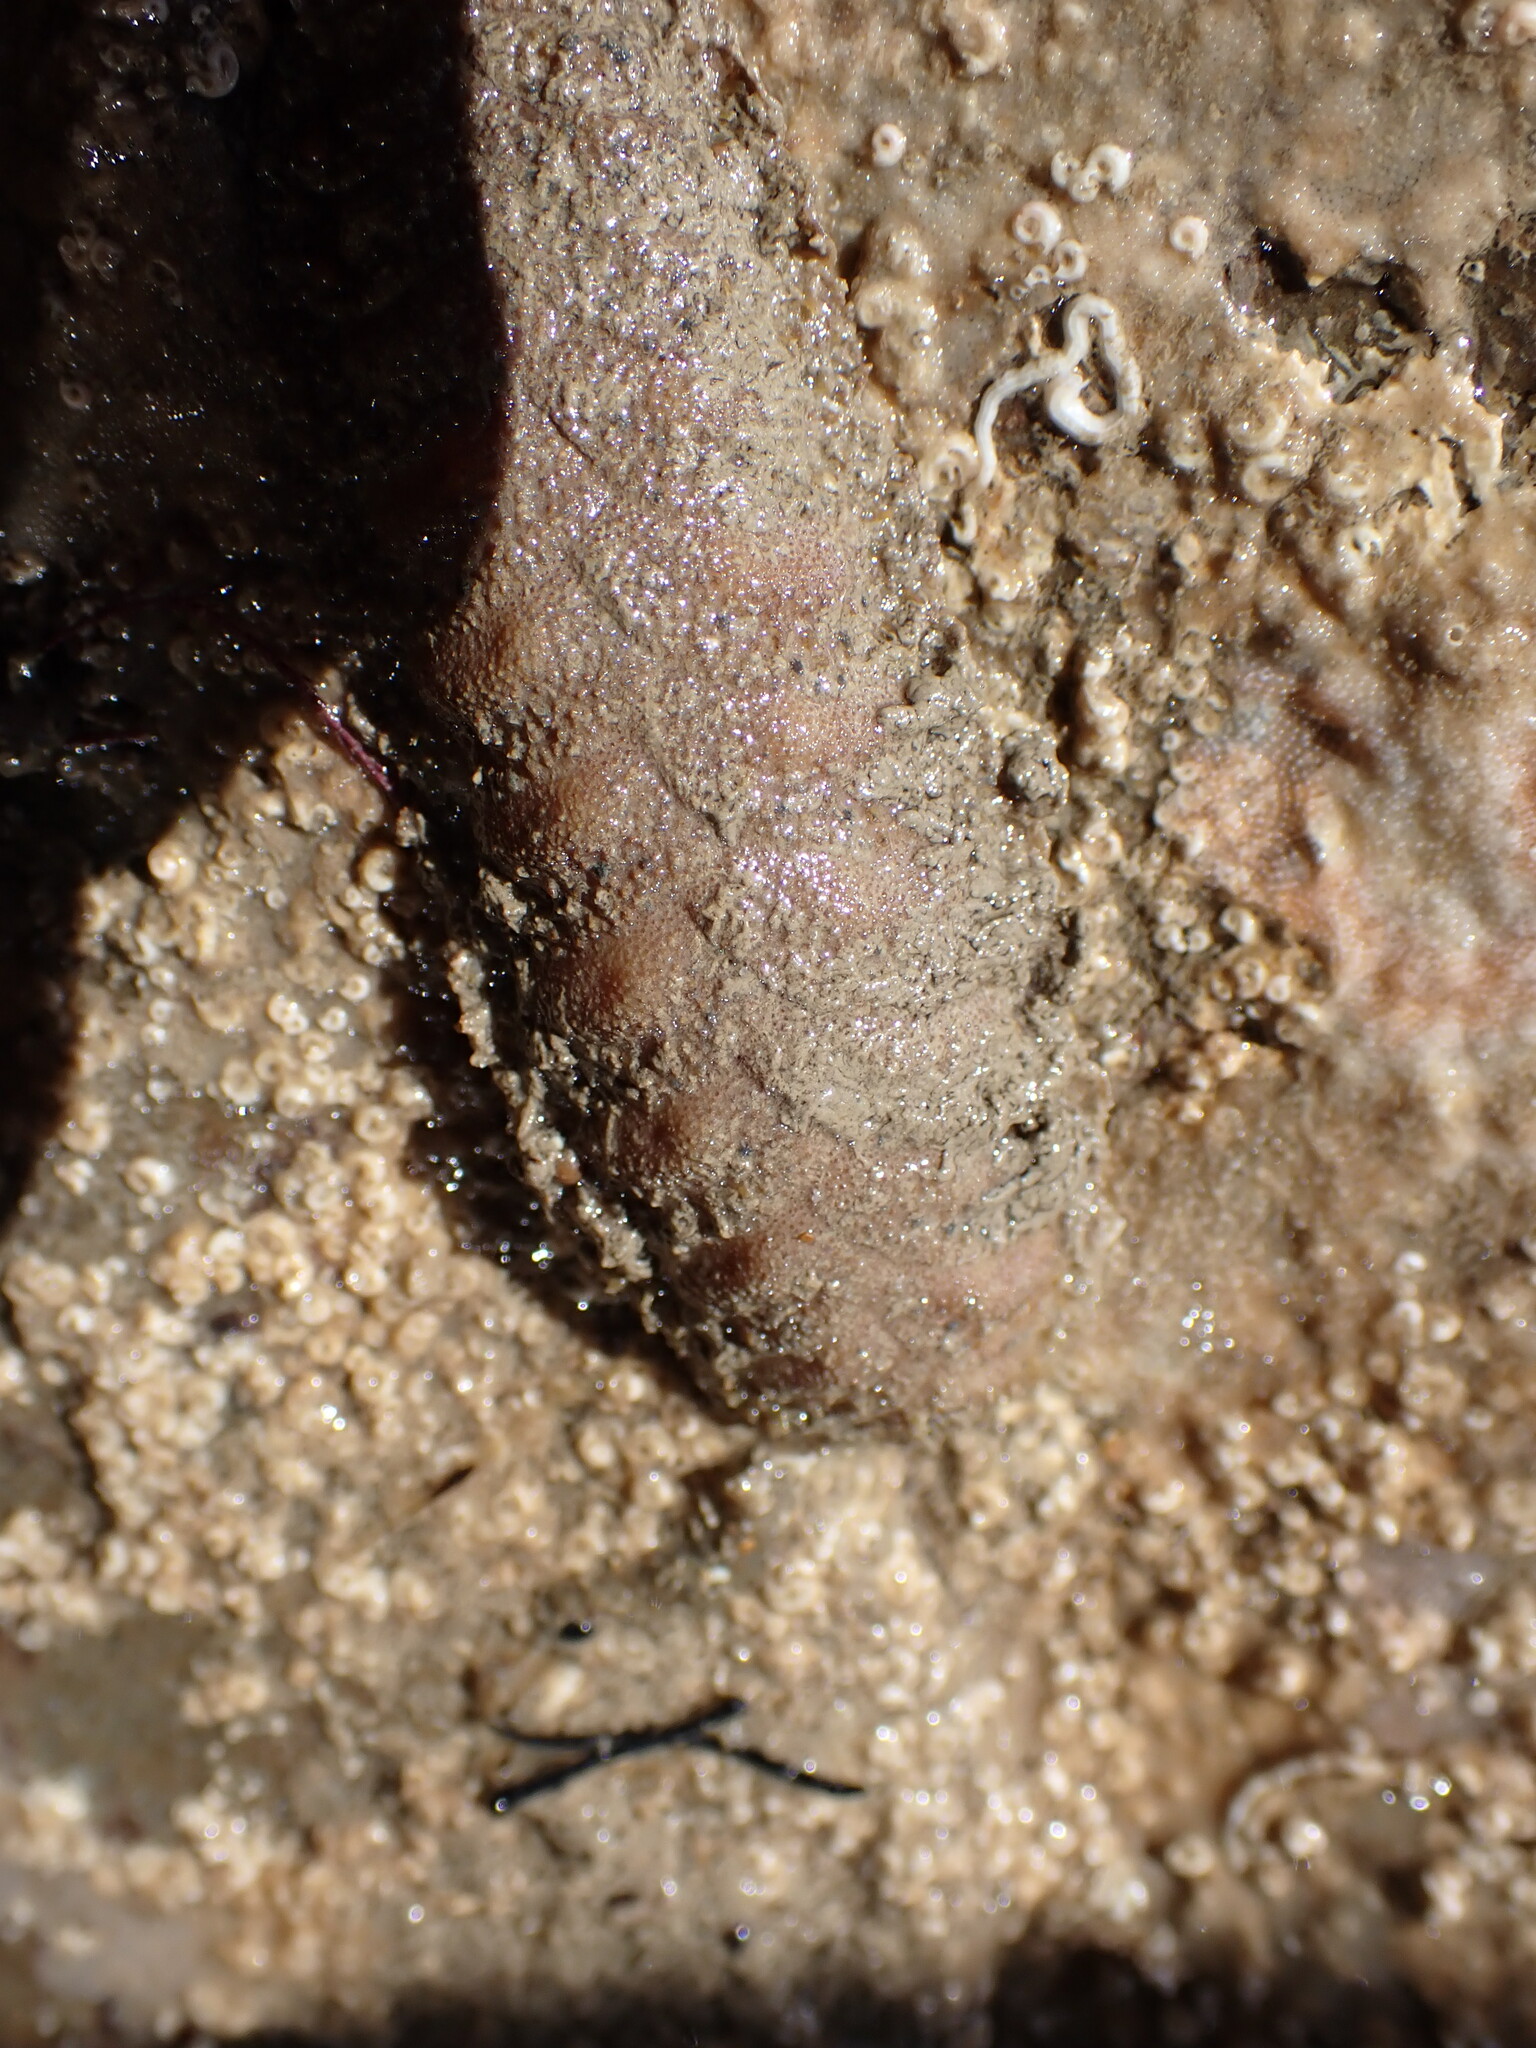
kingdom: Animalia
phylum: Annelida
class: Polychaeta
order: Phyllodocida
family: Polynoidae
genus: Euphione
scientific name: Euphione squamosa
